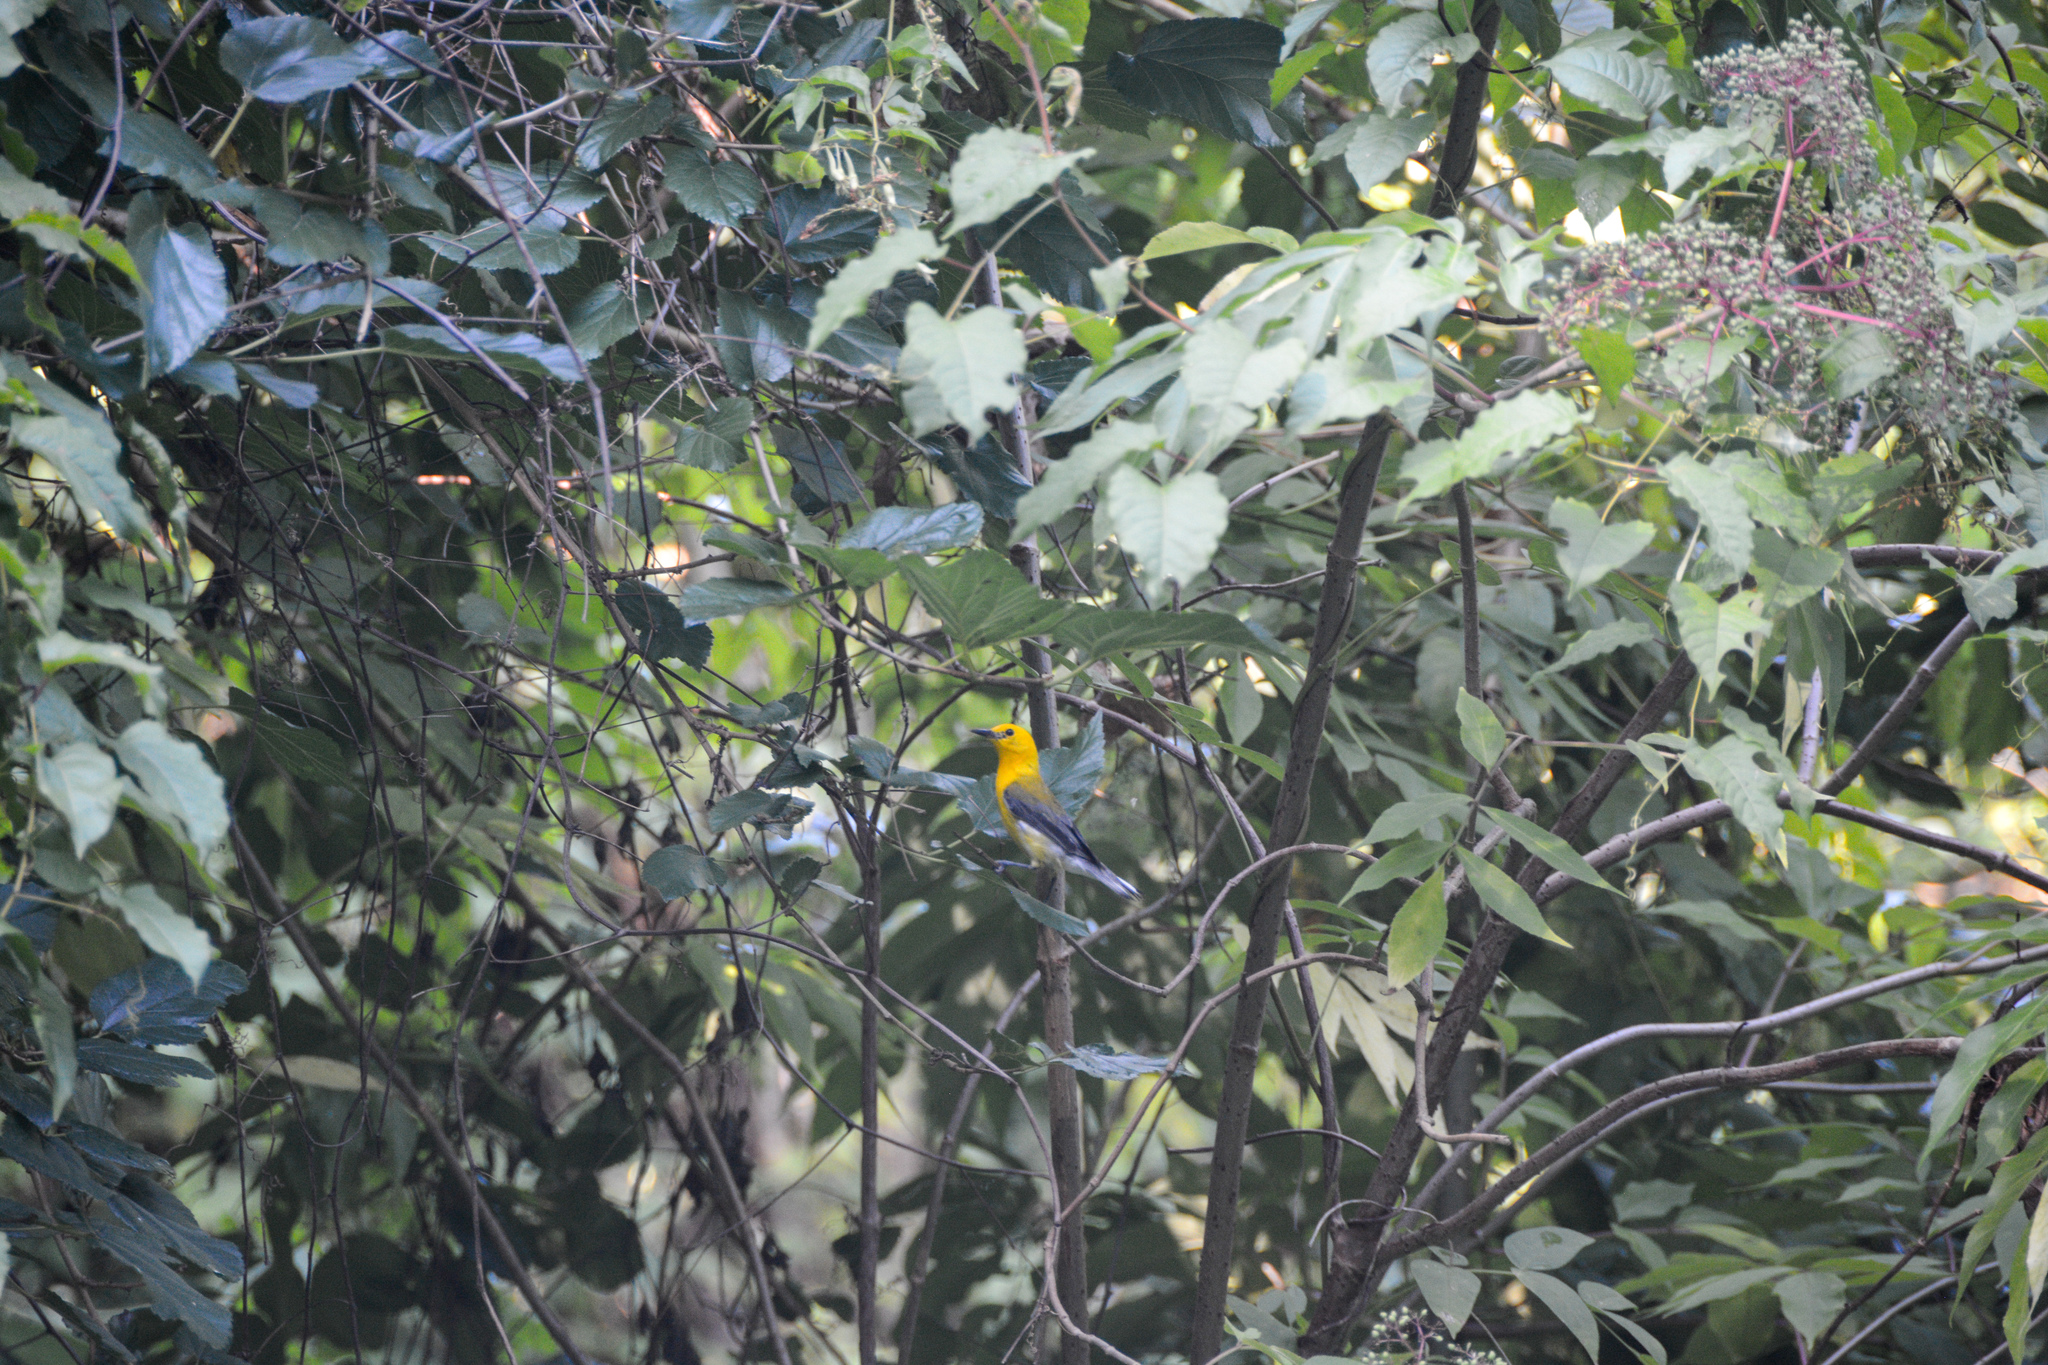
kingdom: Animalia
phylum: Chordata
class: Aves
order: Passeriformes
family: Parulidae
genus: Protonotaria
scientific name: Protonotaria citrea
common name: Prothonotary warbler
